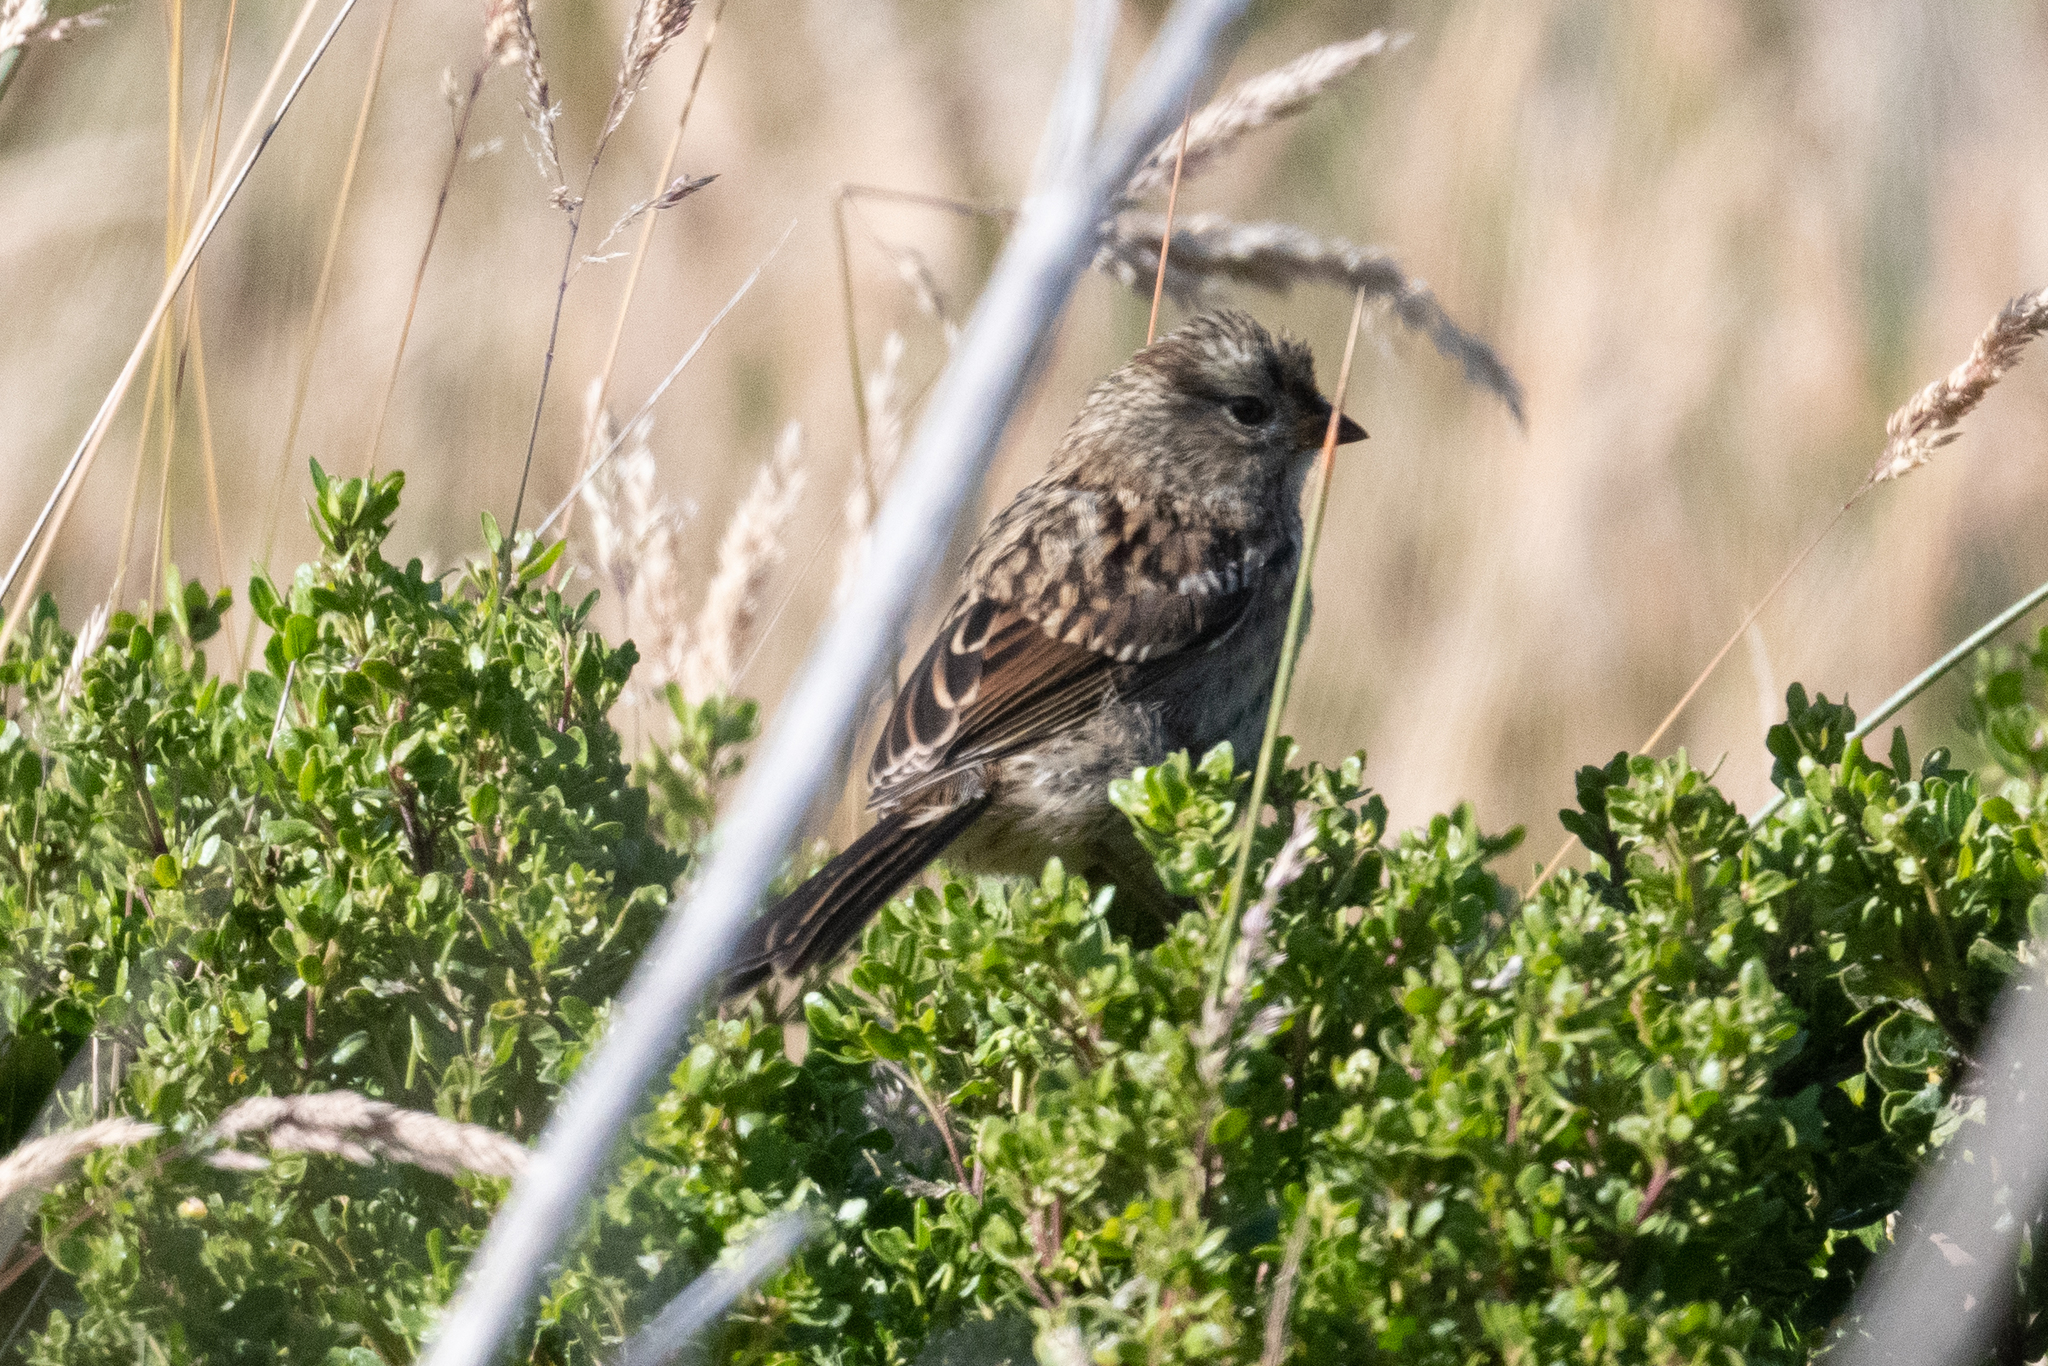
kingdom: Animalia
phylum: Chordata
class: Aves
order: Passeriformes
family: Passerellidae
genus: Zonotrichia
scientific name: Zonotrichia leucophrys
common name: White-crowned sparrow
